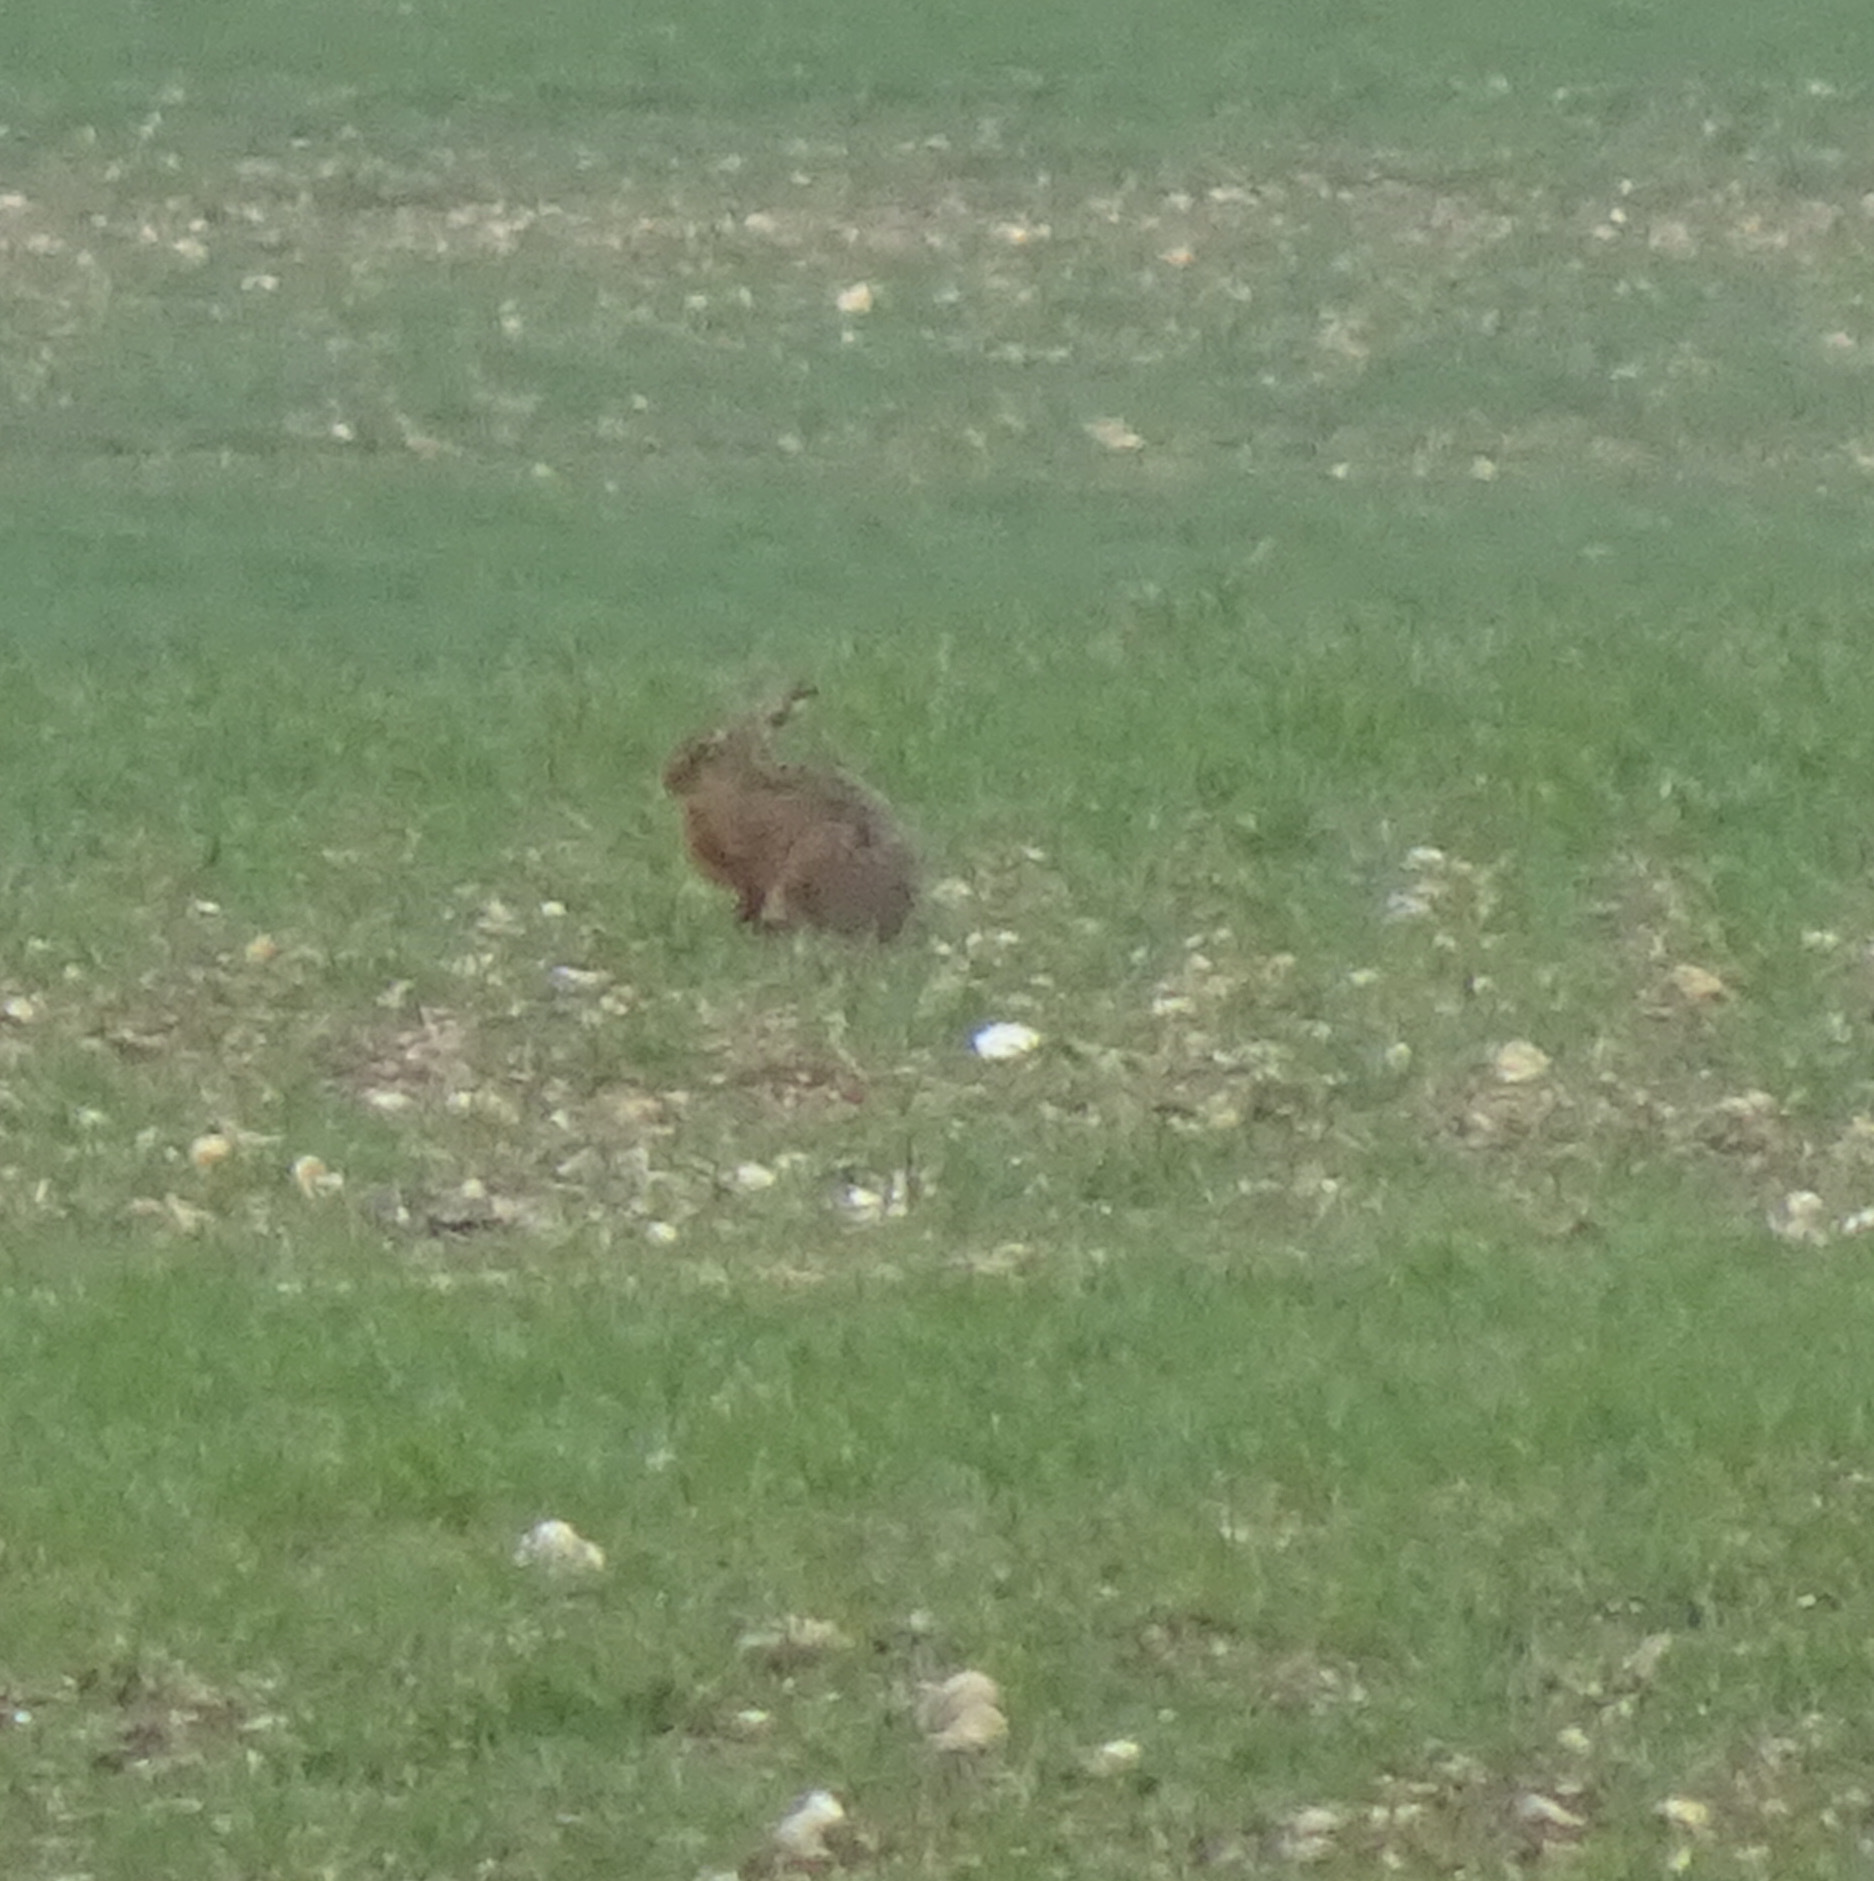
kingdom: Animalia
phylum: Chordata
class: Mammalia
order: Lagomorpha
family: Leporidae
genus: Lepus
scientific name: Lepus europaeus
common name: European hare
